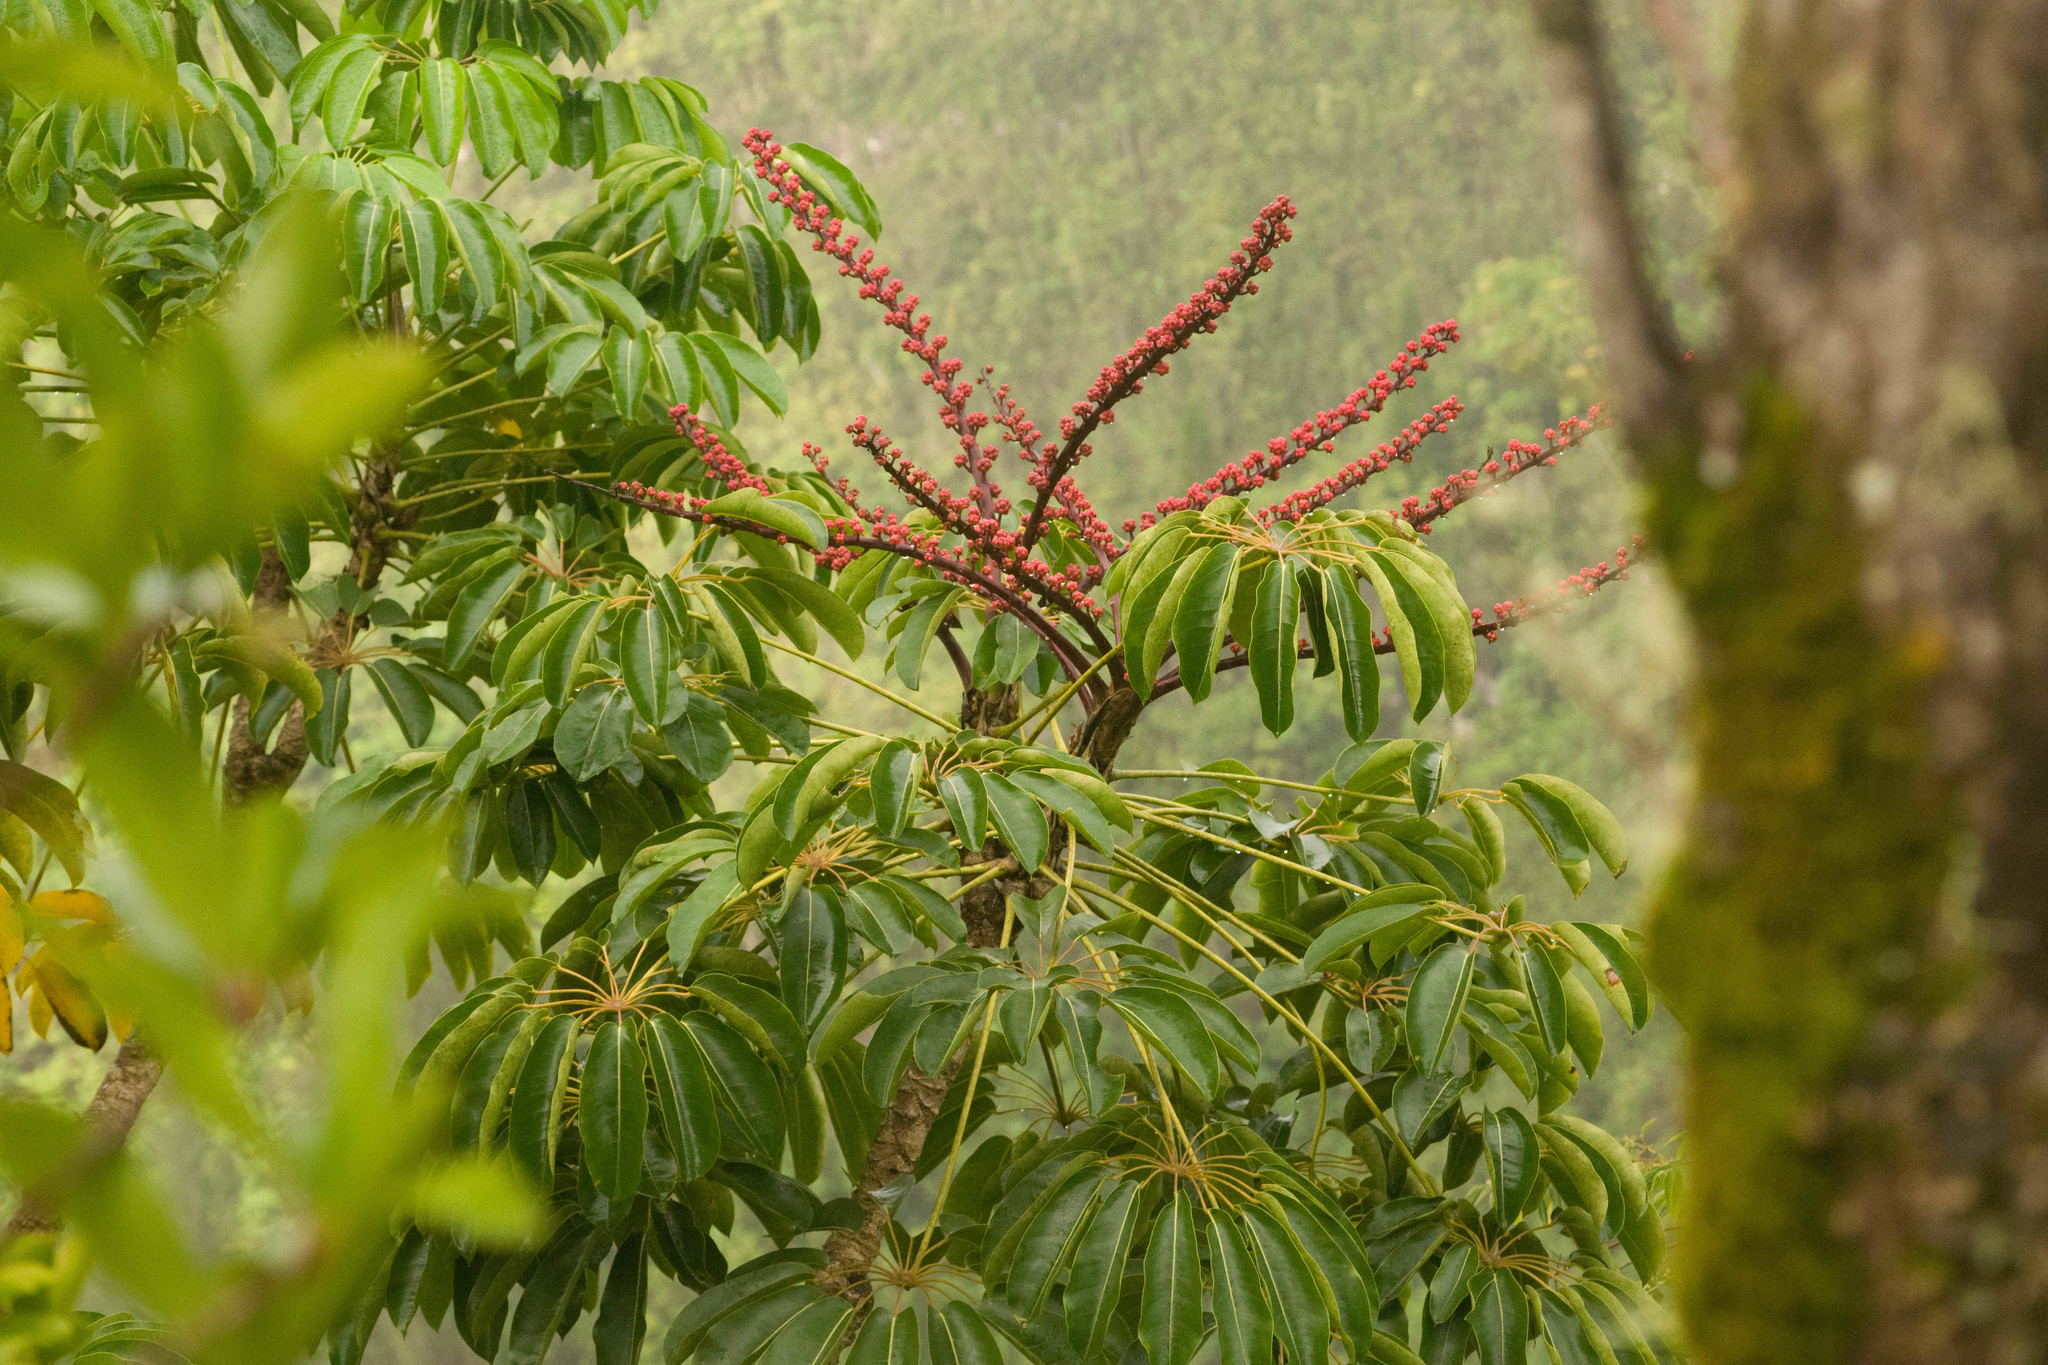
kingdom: Plantae
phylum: Tracheophyta
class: Magnoliopsida
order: Apiales
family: Araliaceae
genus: Heptapleurum
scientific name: Heptapleurum actinophyllum
